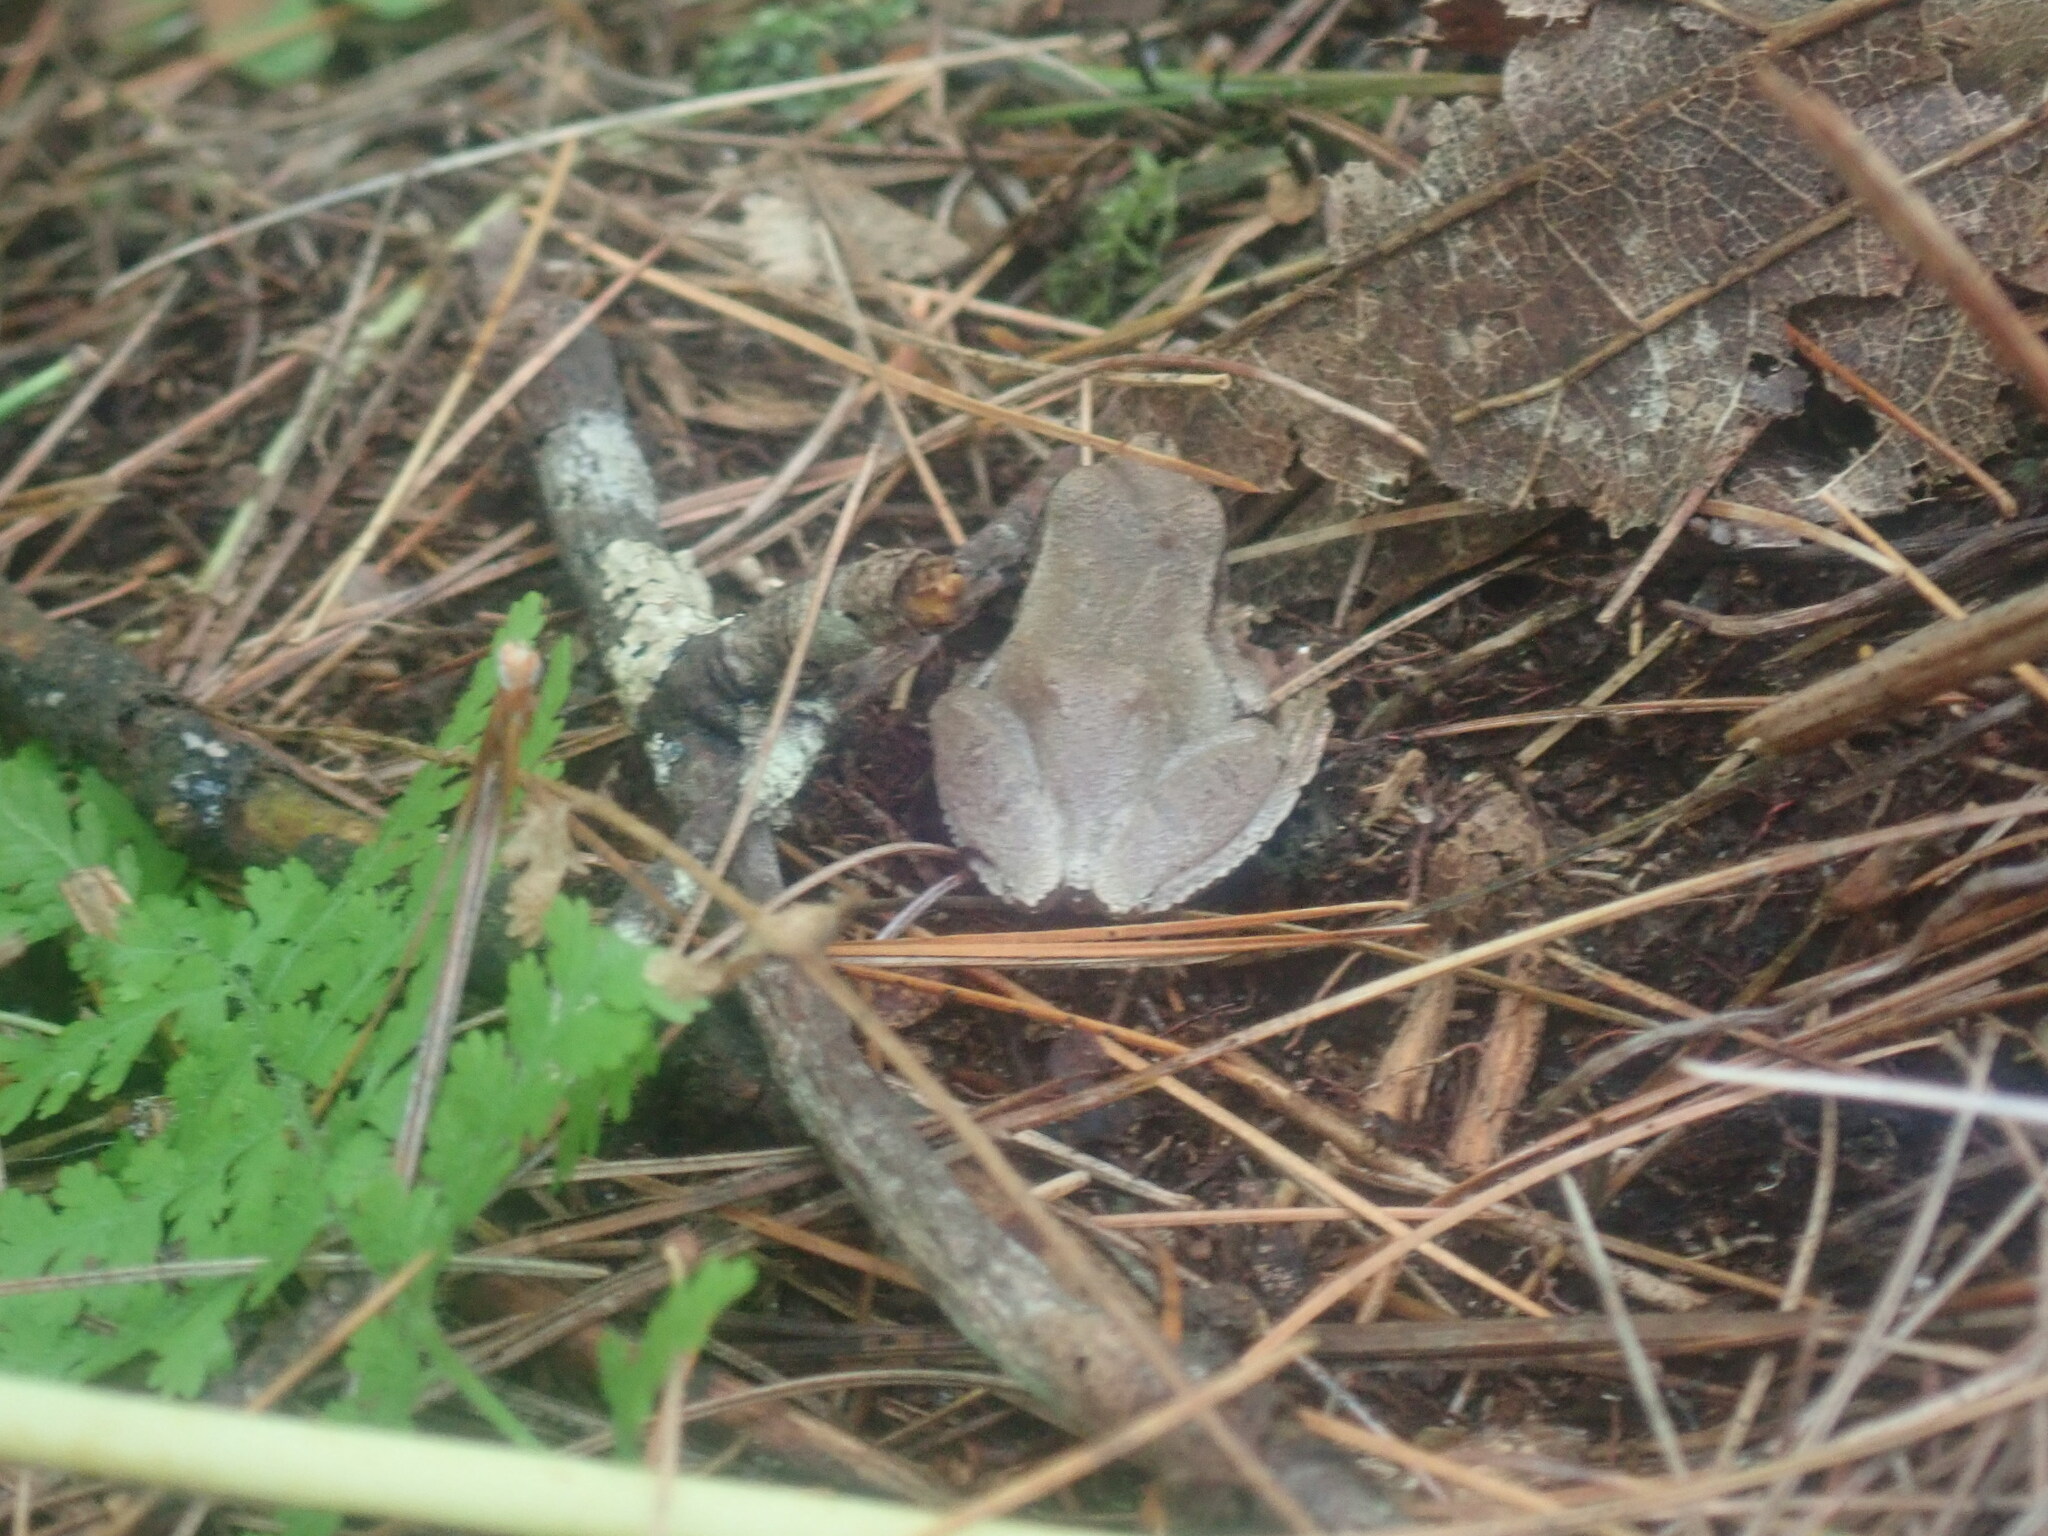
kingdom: Animalia
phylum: Chordata
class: Amphibia
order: Anura
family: Hylidae
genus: Pseudacris
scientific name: Pseudacris crucifer
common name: Spring peeper
